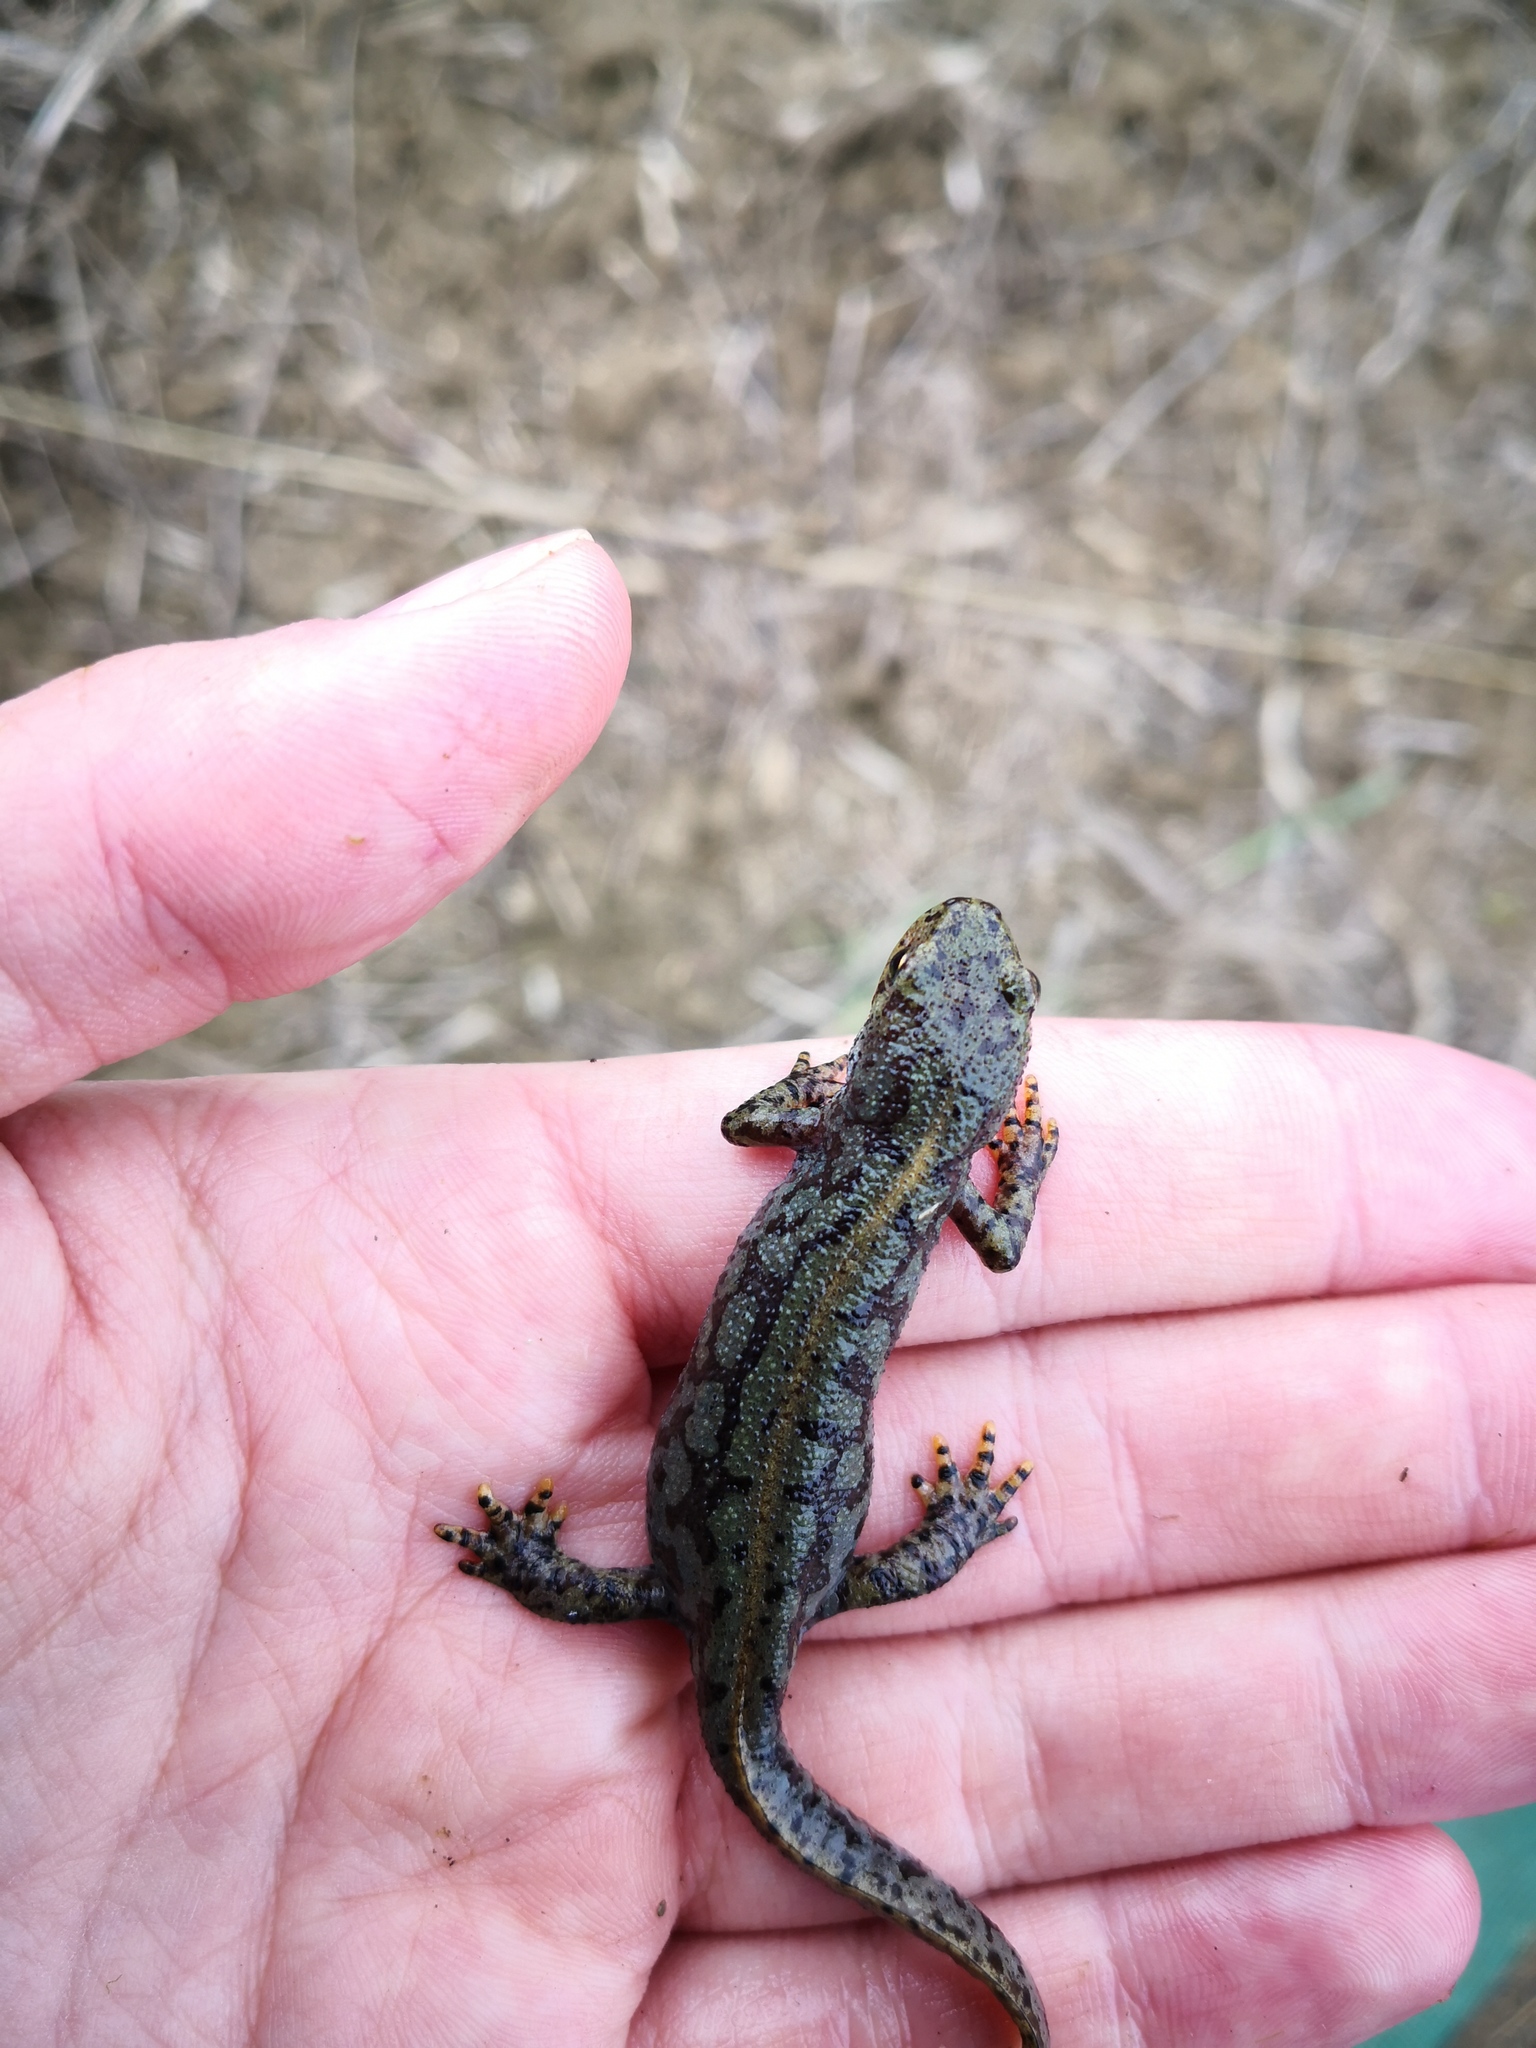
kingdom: Animalia
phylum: Chordata
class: Amphibia
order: Caudata
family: Salamandridae
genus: Ichthyosaura
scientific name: Ichthyosaura alpestris
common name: Alpine newt
